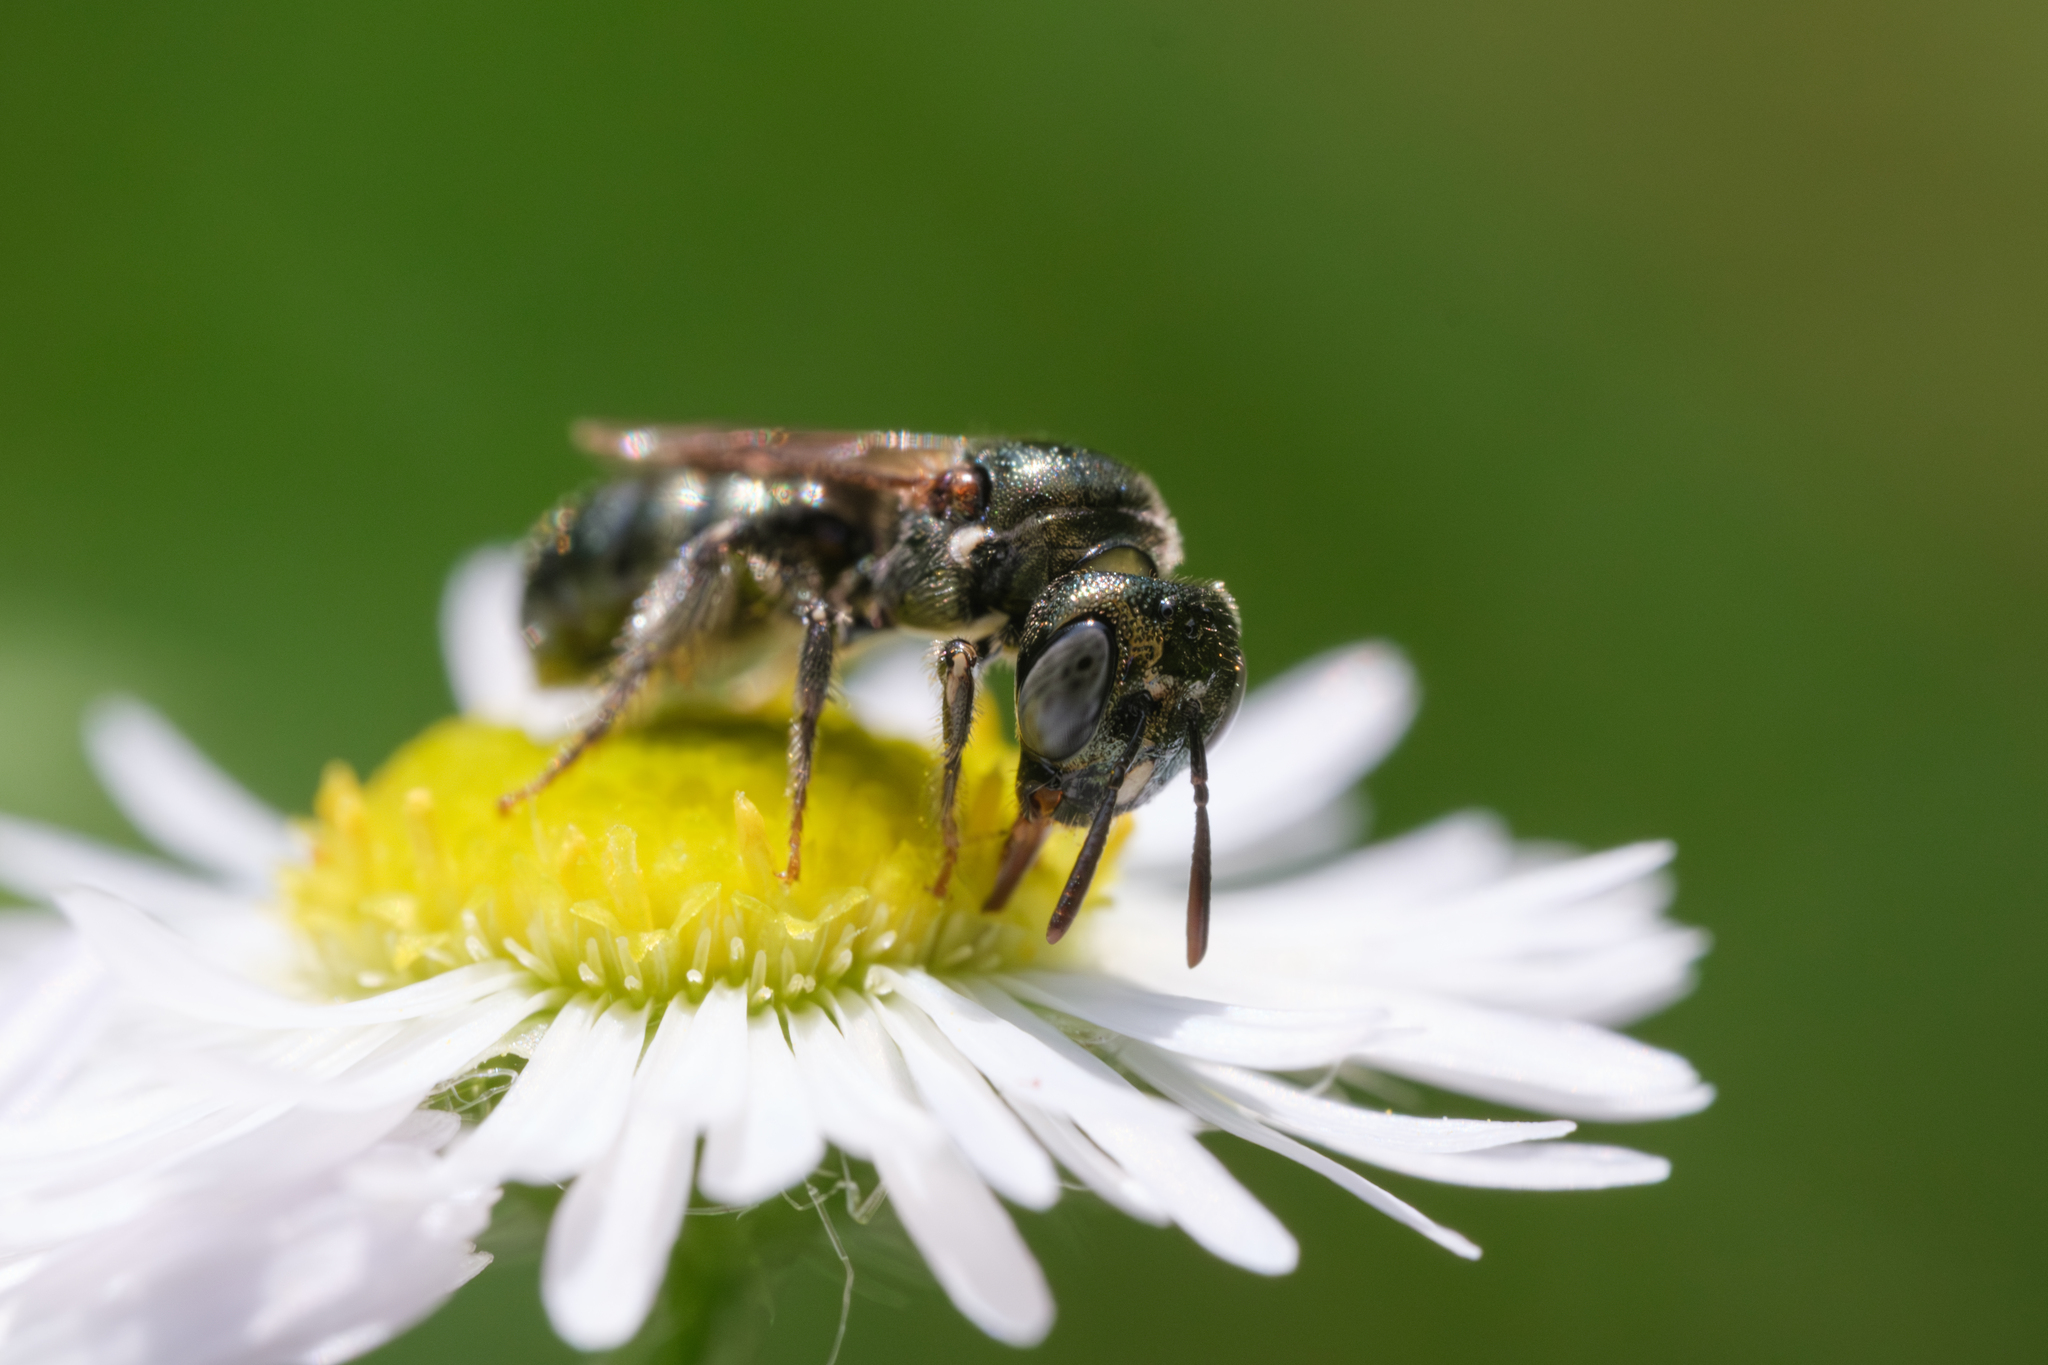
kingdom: Animalia
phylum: Arthropoda
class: Insecta
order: Hymenoptera
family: Apidae
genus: Ceratina
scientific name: Ceratina strenua
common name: Nimble carpenter bee
